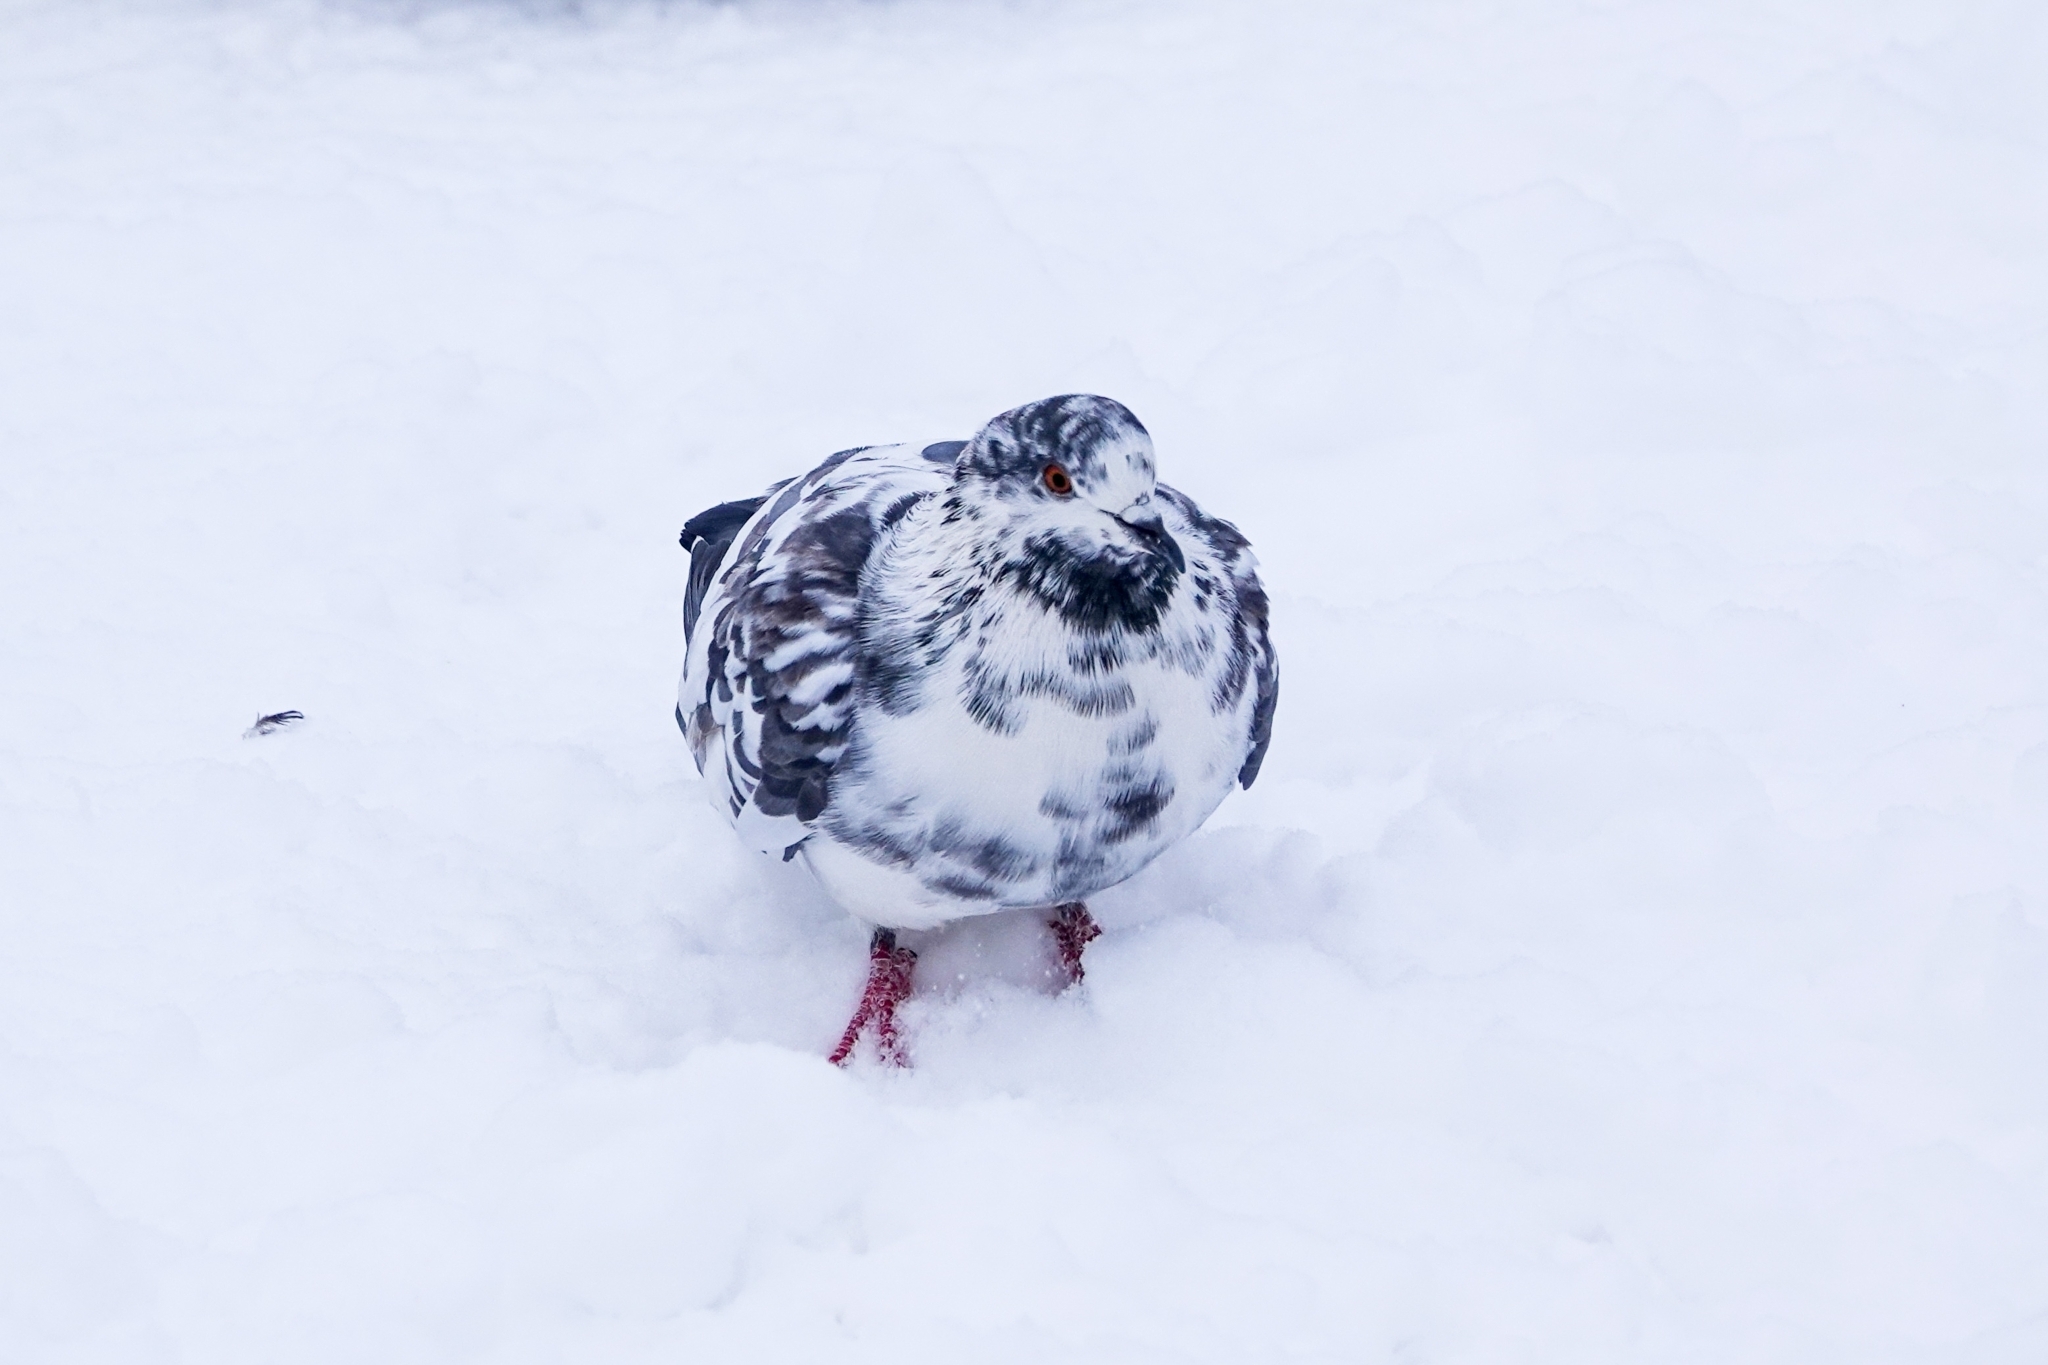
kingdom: Animalia
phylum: Chordata
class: Aves
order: Columbiformes
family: Columbidae
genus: Columba
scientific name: Columba livia
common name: Rock pigeon
